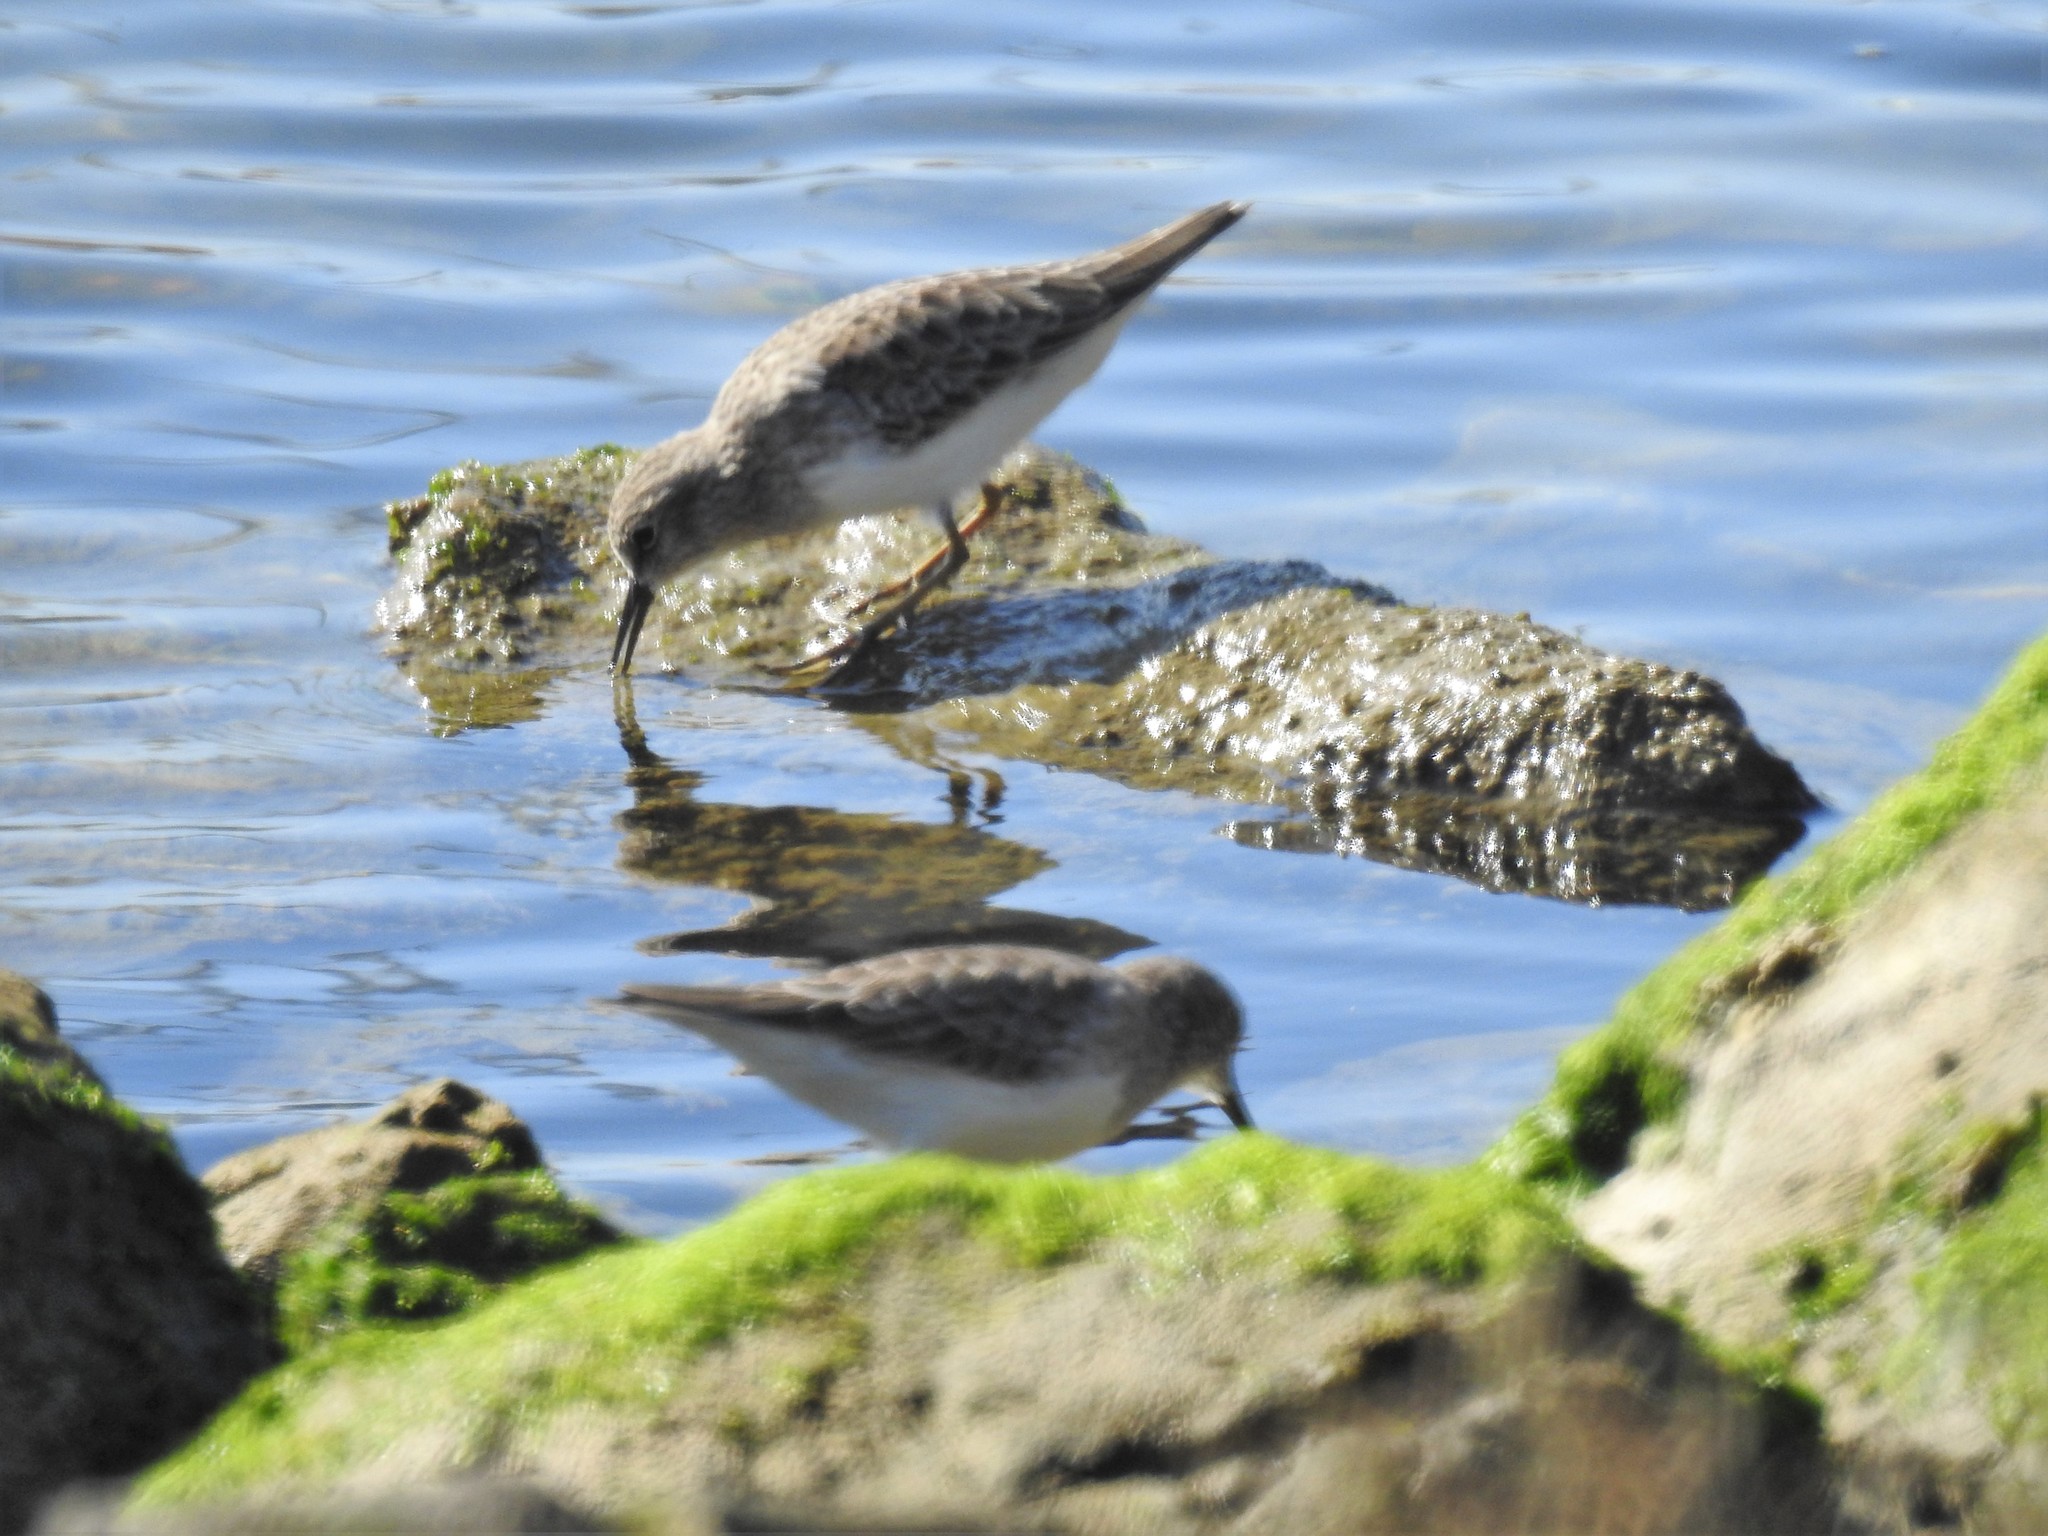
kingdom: Animalia
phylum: Chordata
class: Aves
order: Charadriiformes
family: Scolopacidae
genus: Calidris
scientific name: Calidris minutilla
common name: Least sandpiper
